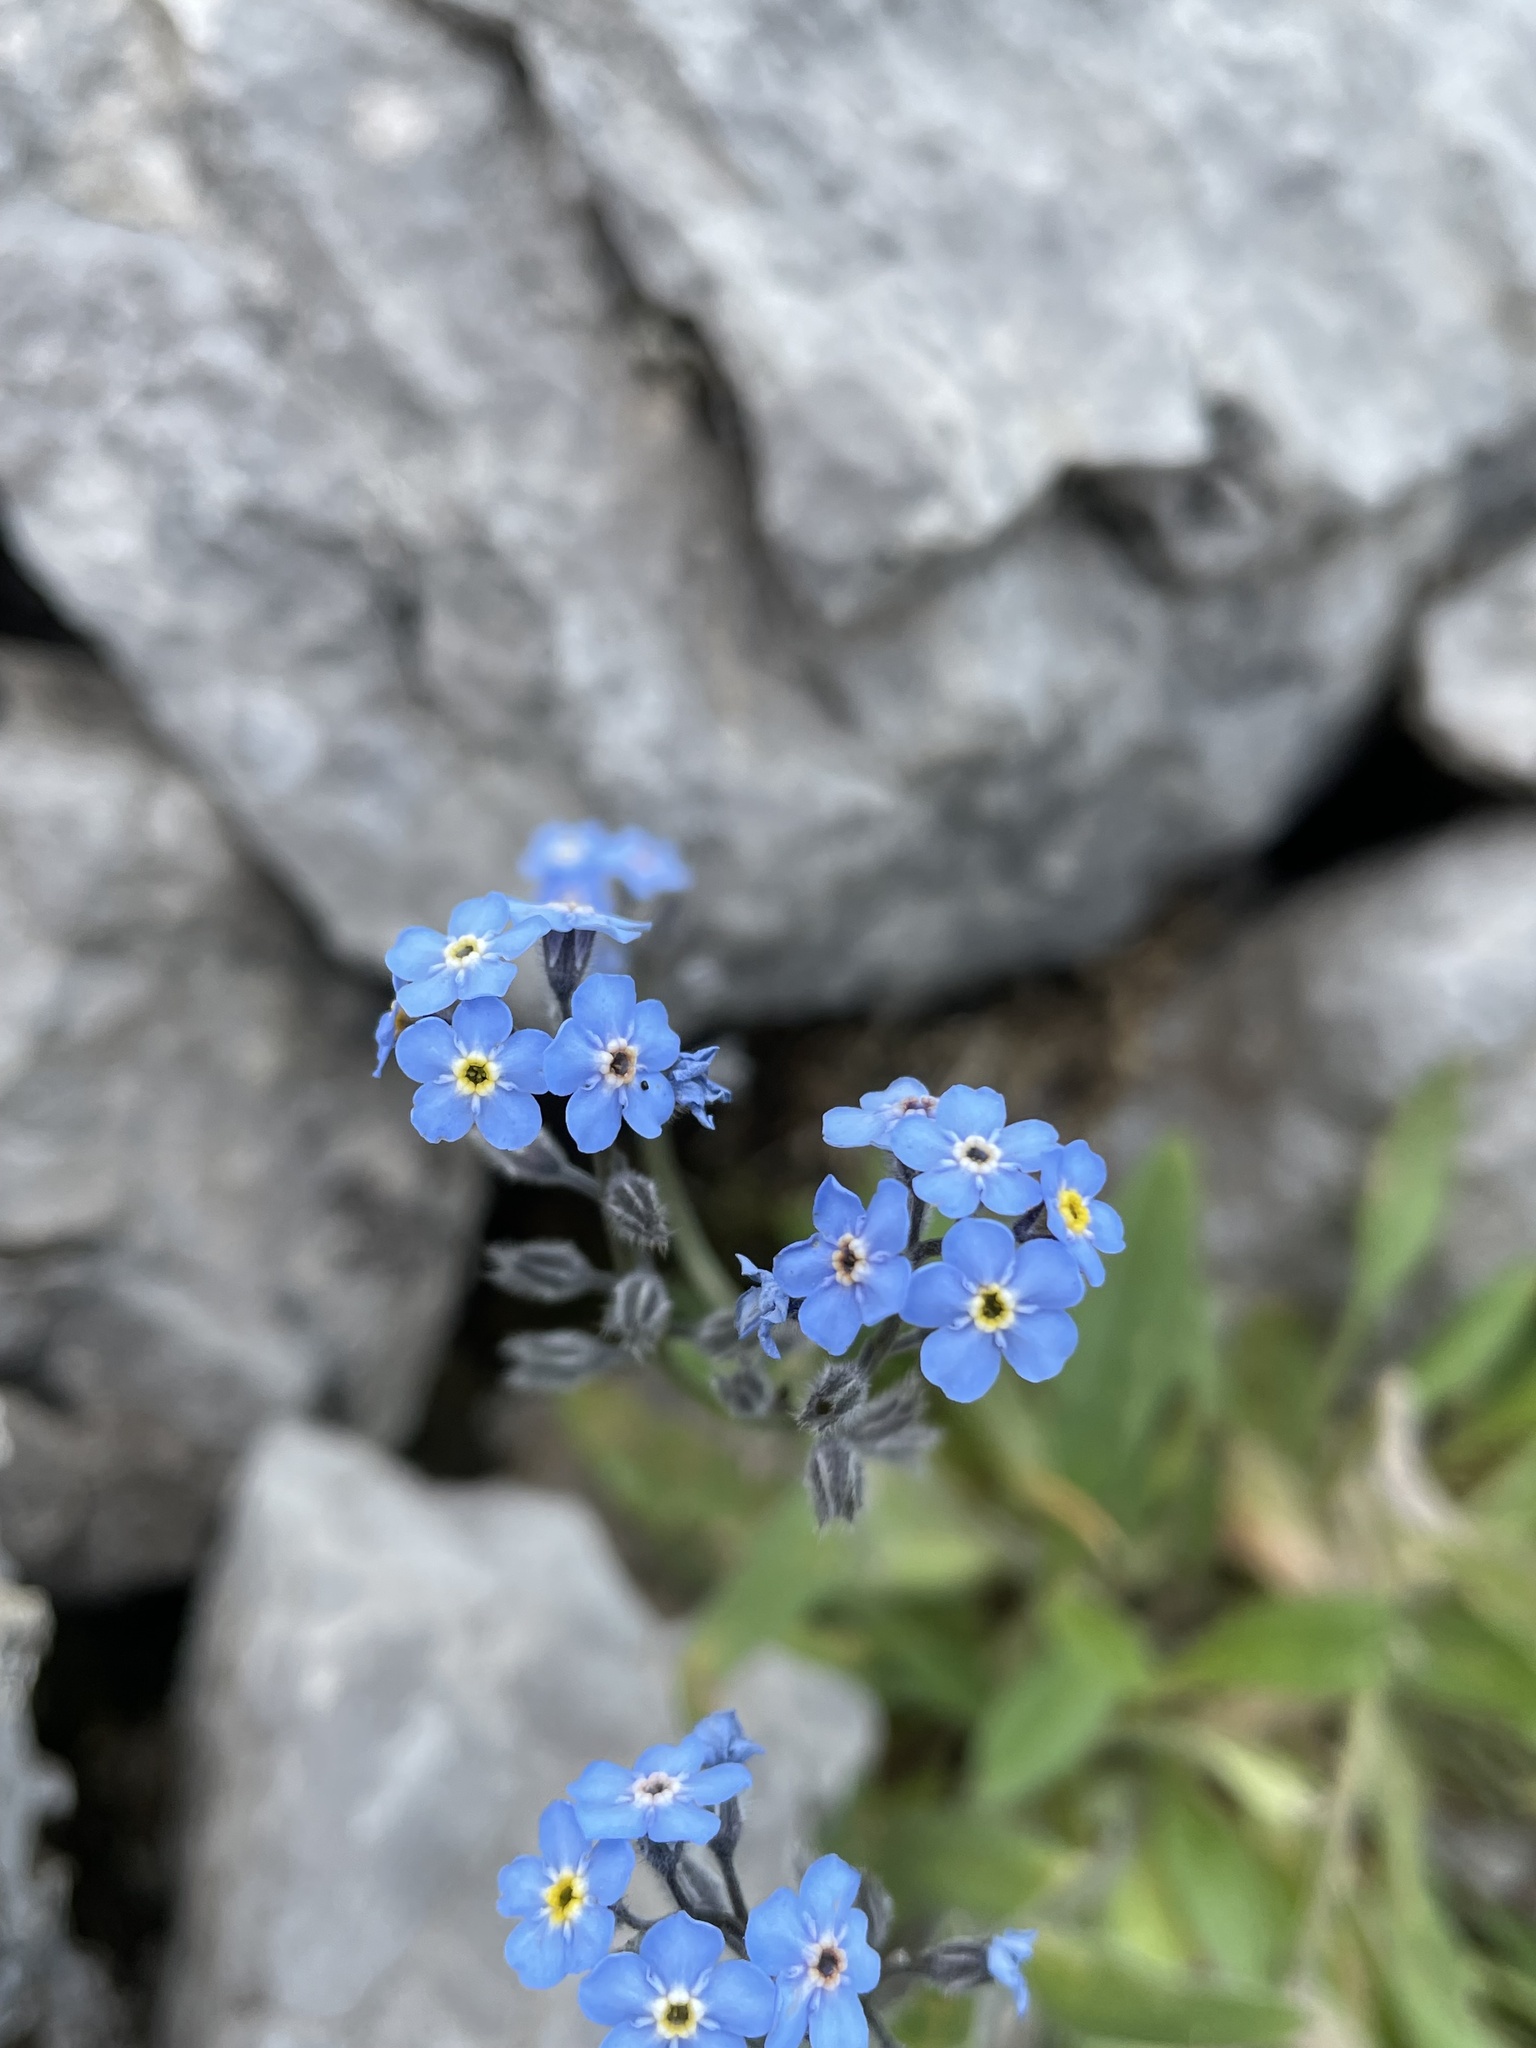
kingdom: Plantae
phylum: Tracheophyta
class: Magnoliopsida
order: Boraginales
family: Boraginaceae
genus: Myosotis
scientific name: Myosotis asiatica
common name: Asian forget-me-not
